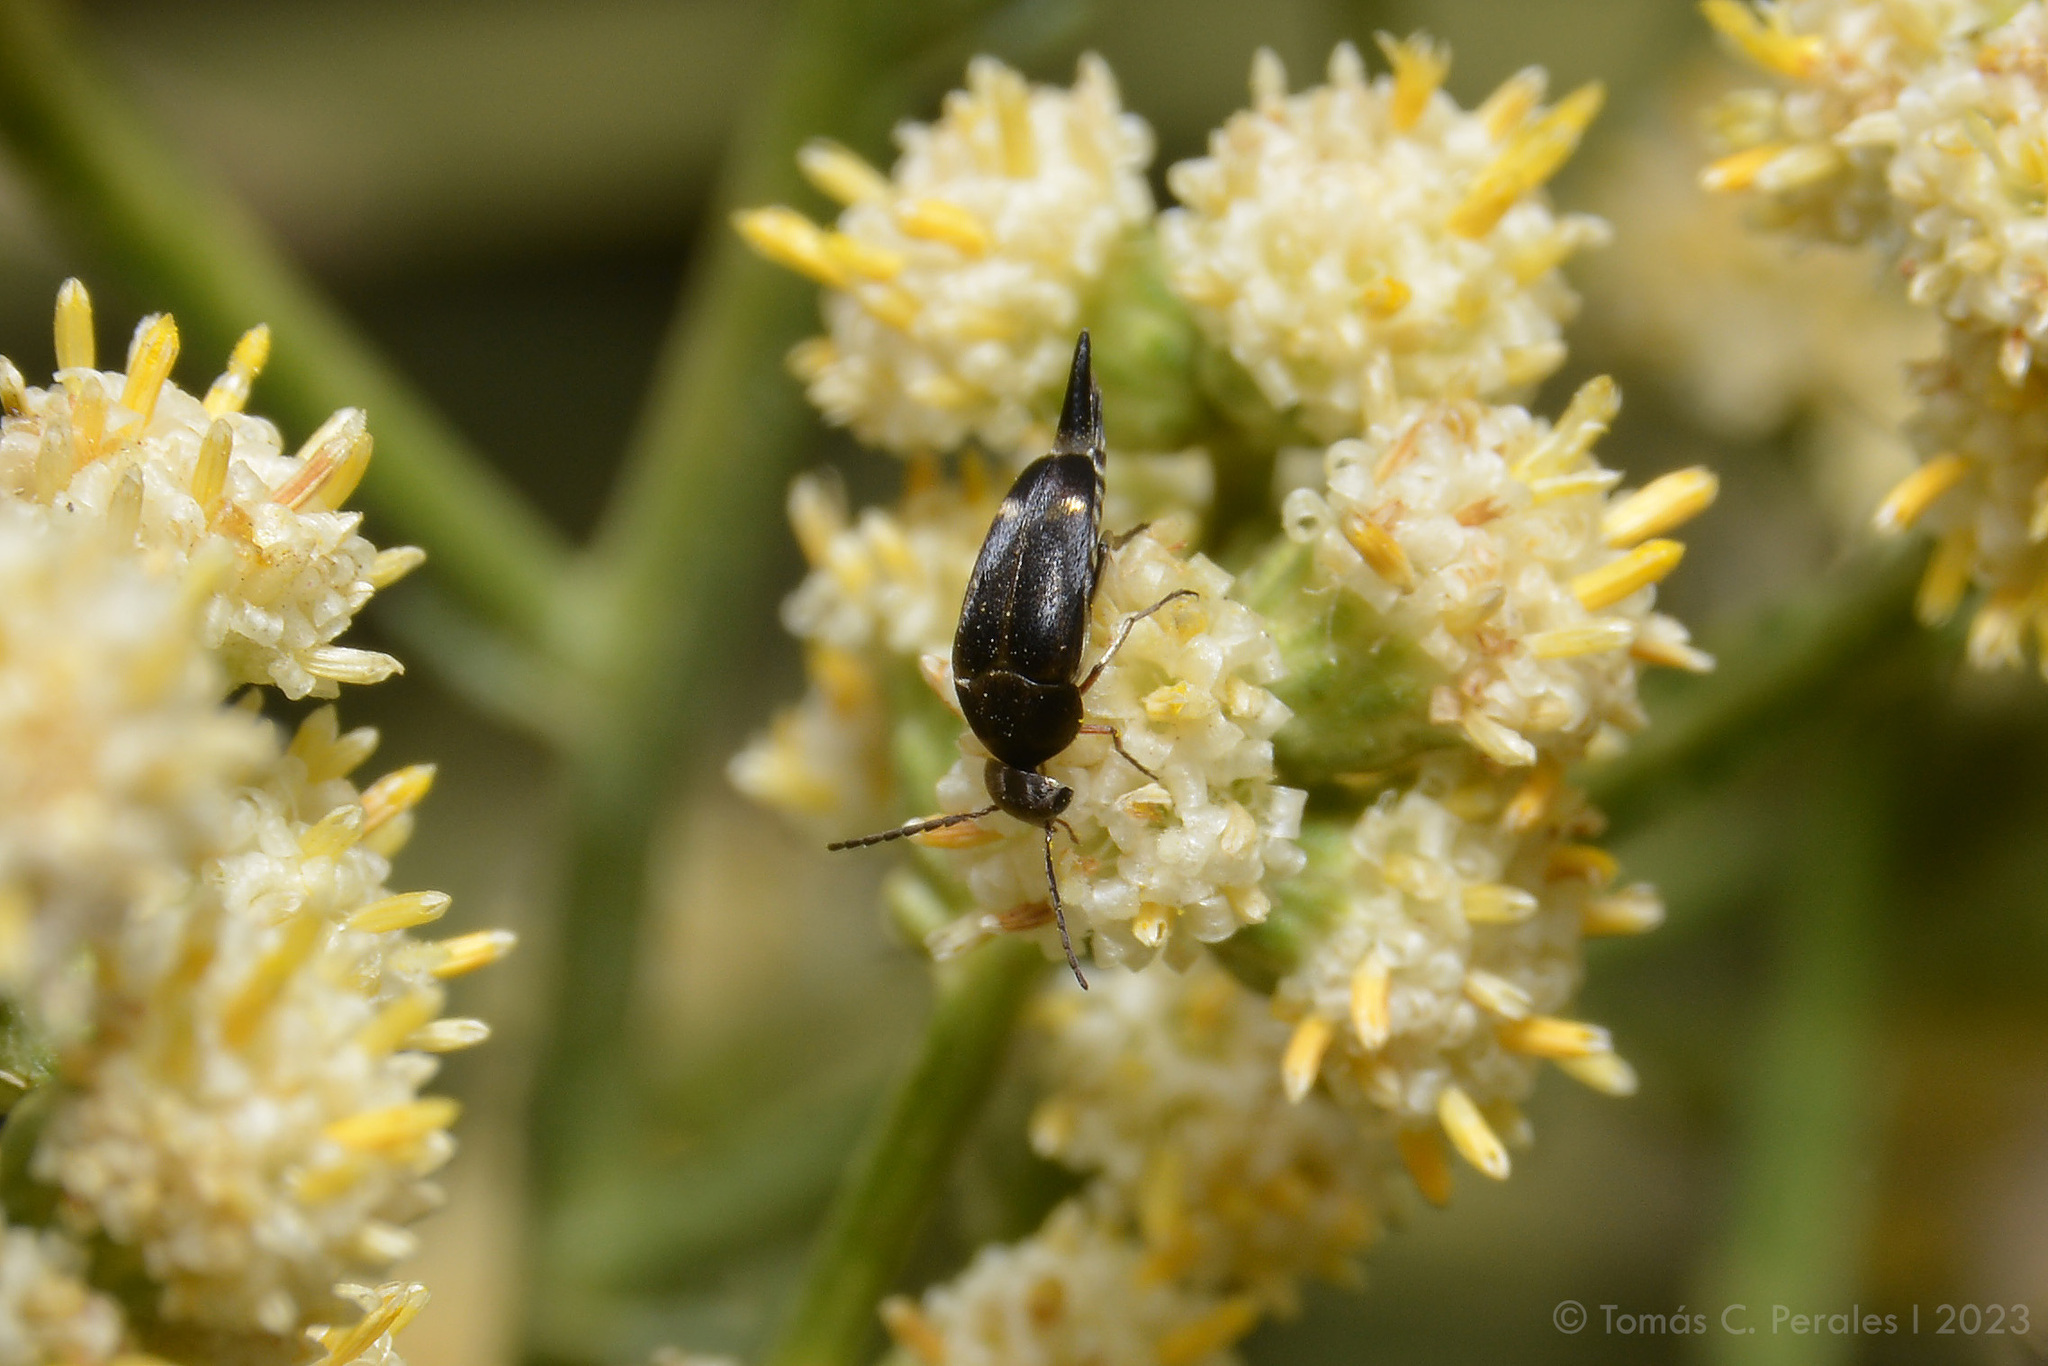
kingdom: Plantae
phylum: Tracheophyta
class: Magnoliopsida
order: Asterales
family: Asteraceae
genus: Baccharis
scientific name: Baccharis articulata
